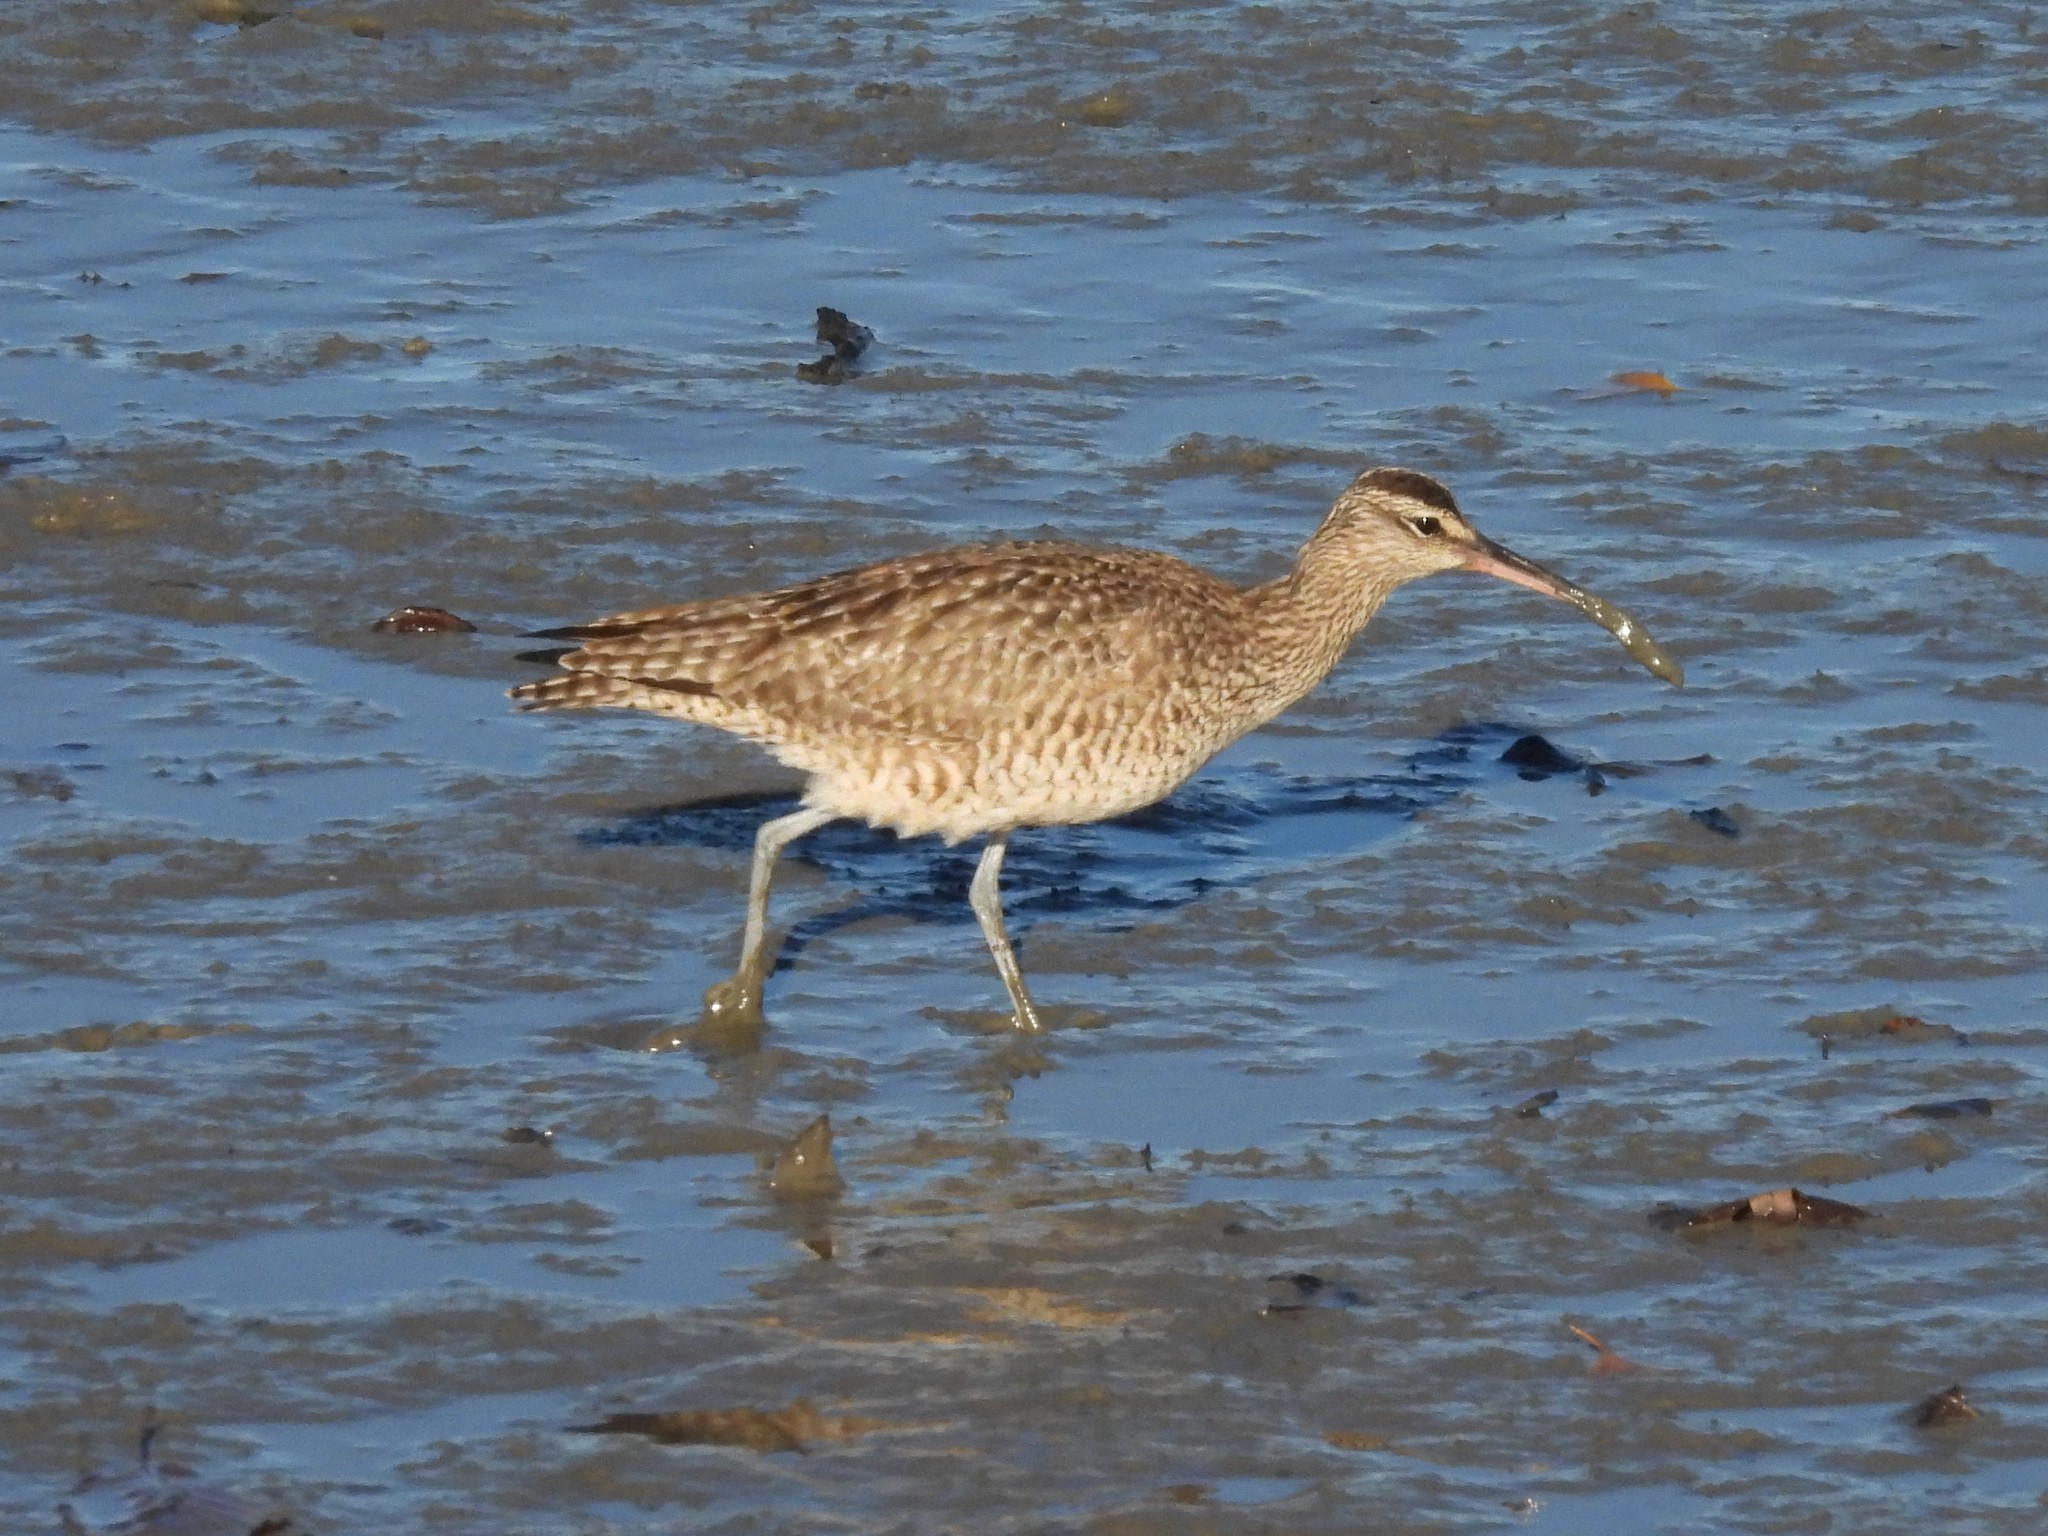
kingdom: Animalia
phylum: Chordata
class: Aves
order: Charadriiformes
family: Scolopacidae
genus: Numenius
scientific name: Numenius phaeopus
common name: Whimbrel
